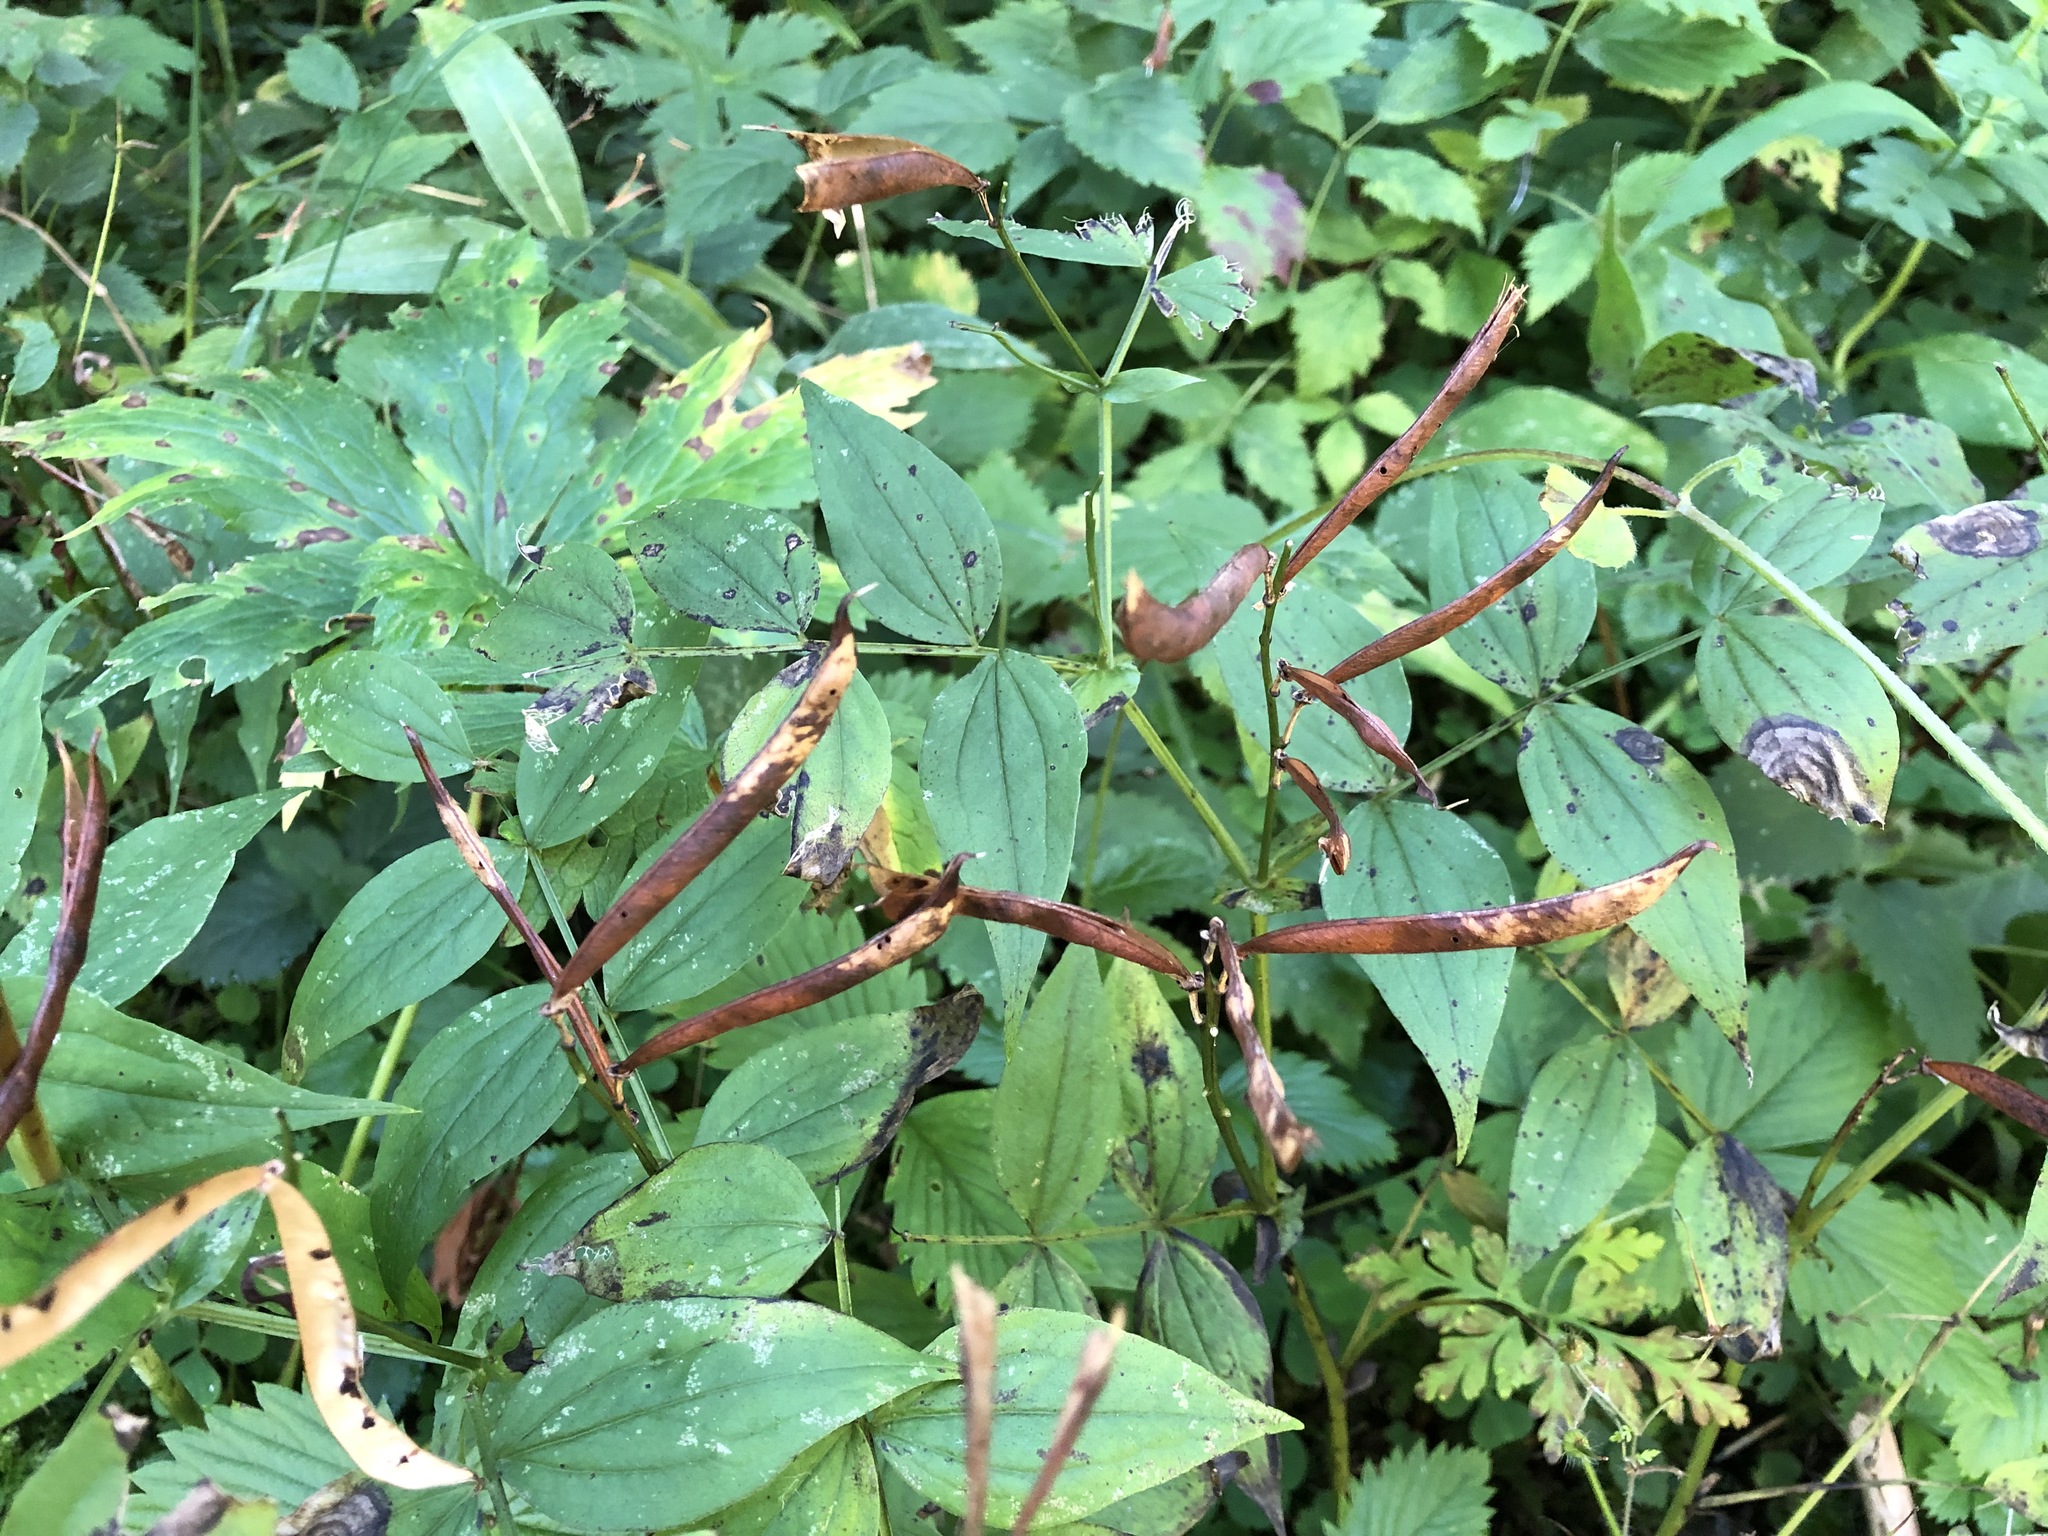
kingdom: Plantae
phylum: Tracheophyta
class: Magnoliopsida
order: Fabales
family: Fabaceae
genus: Lathyrus
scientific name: Lathyrus vernus
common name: Spring pea
